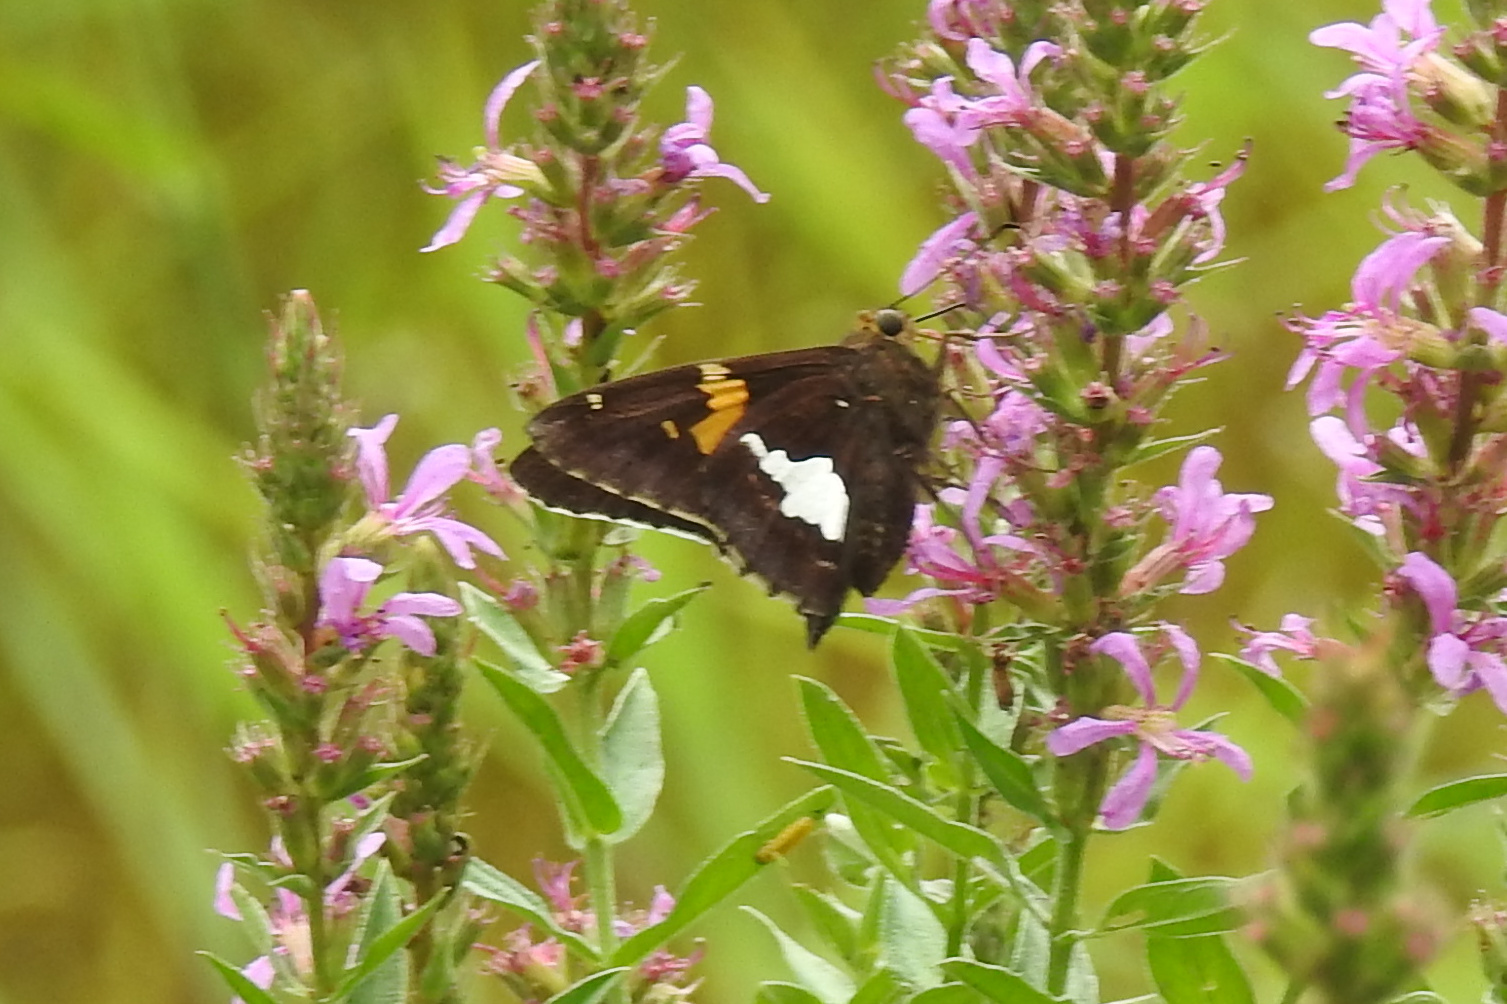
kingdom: Animalia
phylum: Arthropoda
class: Insecta
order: Lepidoptera
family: Hesperiidae
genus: Epargyreus
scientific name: Epargyreus clarus
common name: Silver-spotted skipper
